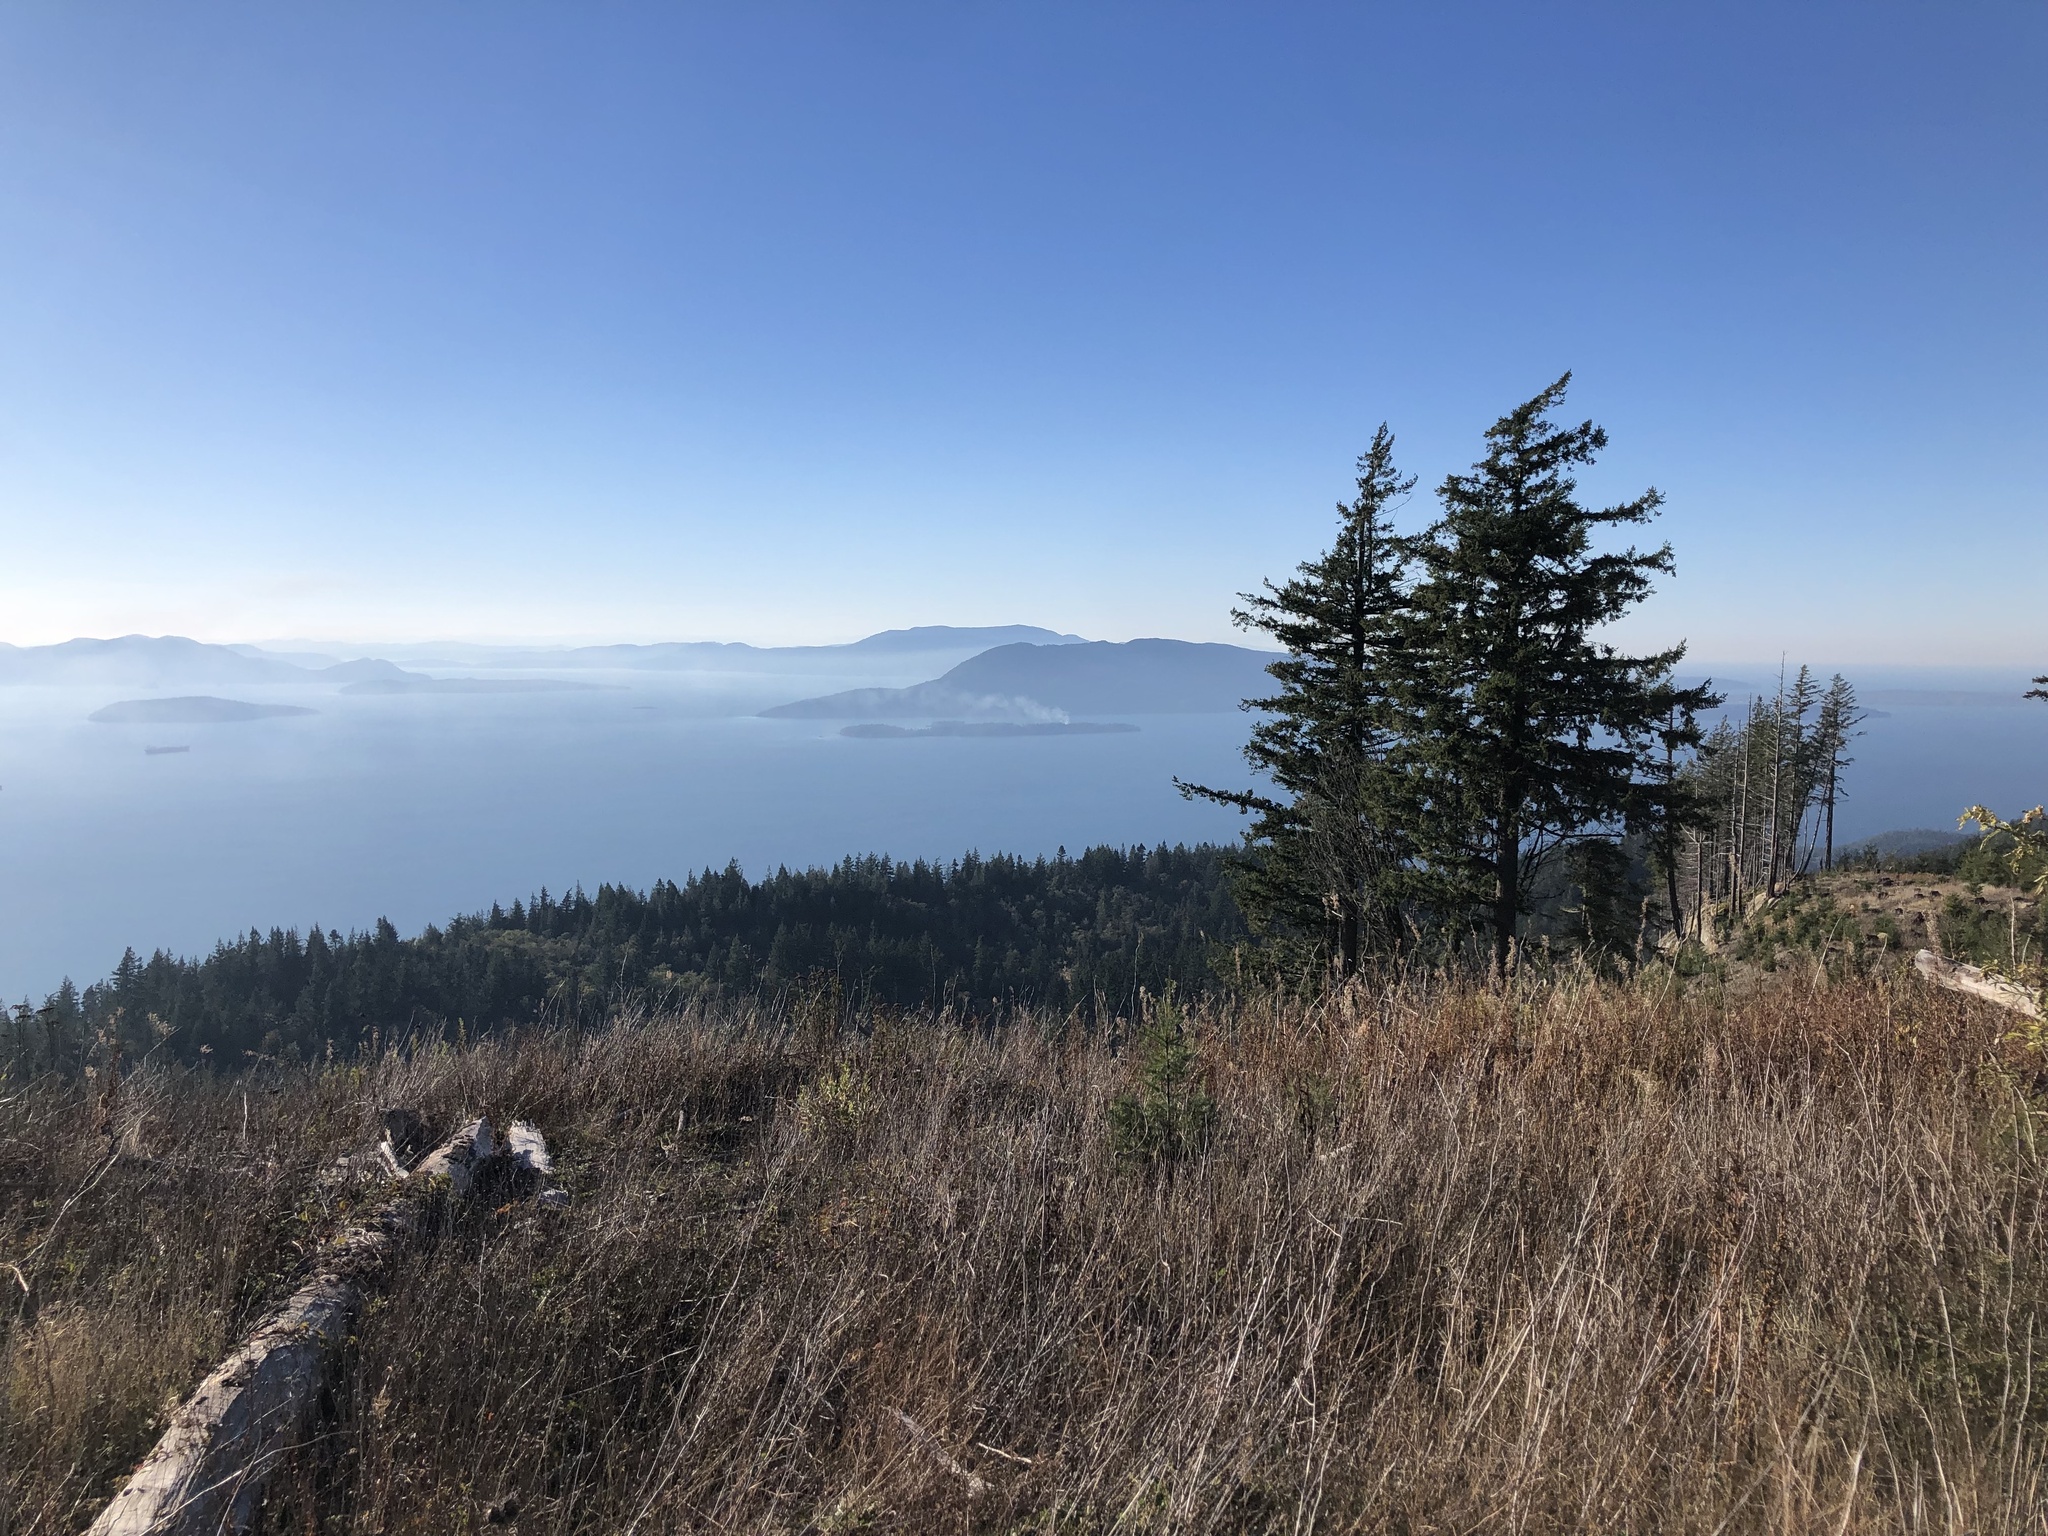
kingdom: Plantae
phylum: Tracheophyta
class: Pinopsida
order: Pinales
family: Pinaceae
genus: Pseudotsuga
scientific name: Pseudotsuga menziesii
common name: Douglas fir
